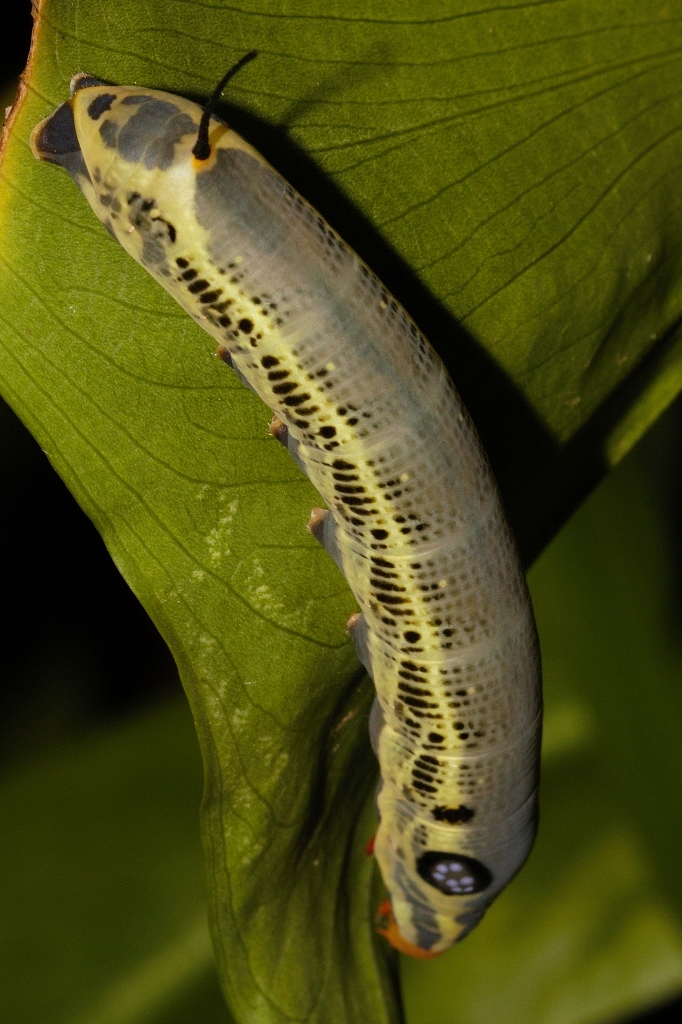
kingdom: Animalia
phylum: Arthropoda
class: Insecta
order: Lepidoptera
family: Sphingidae
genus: Hippotion
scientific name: Hippotion osiris
